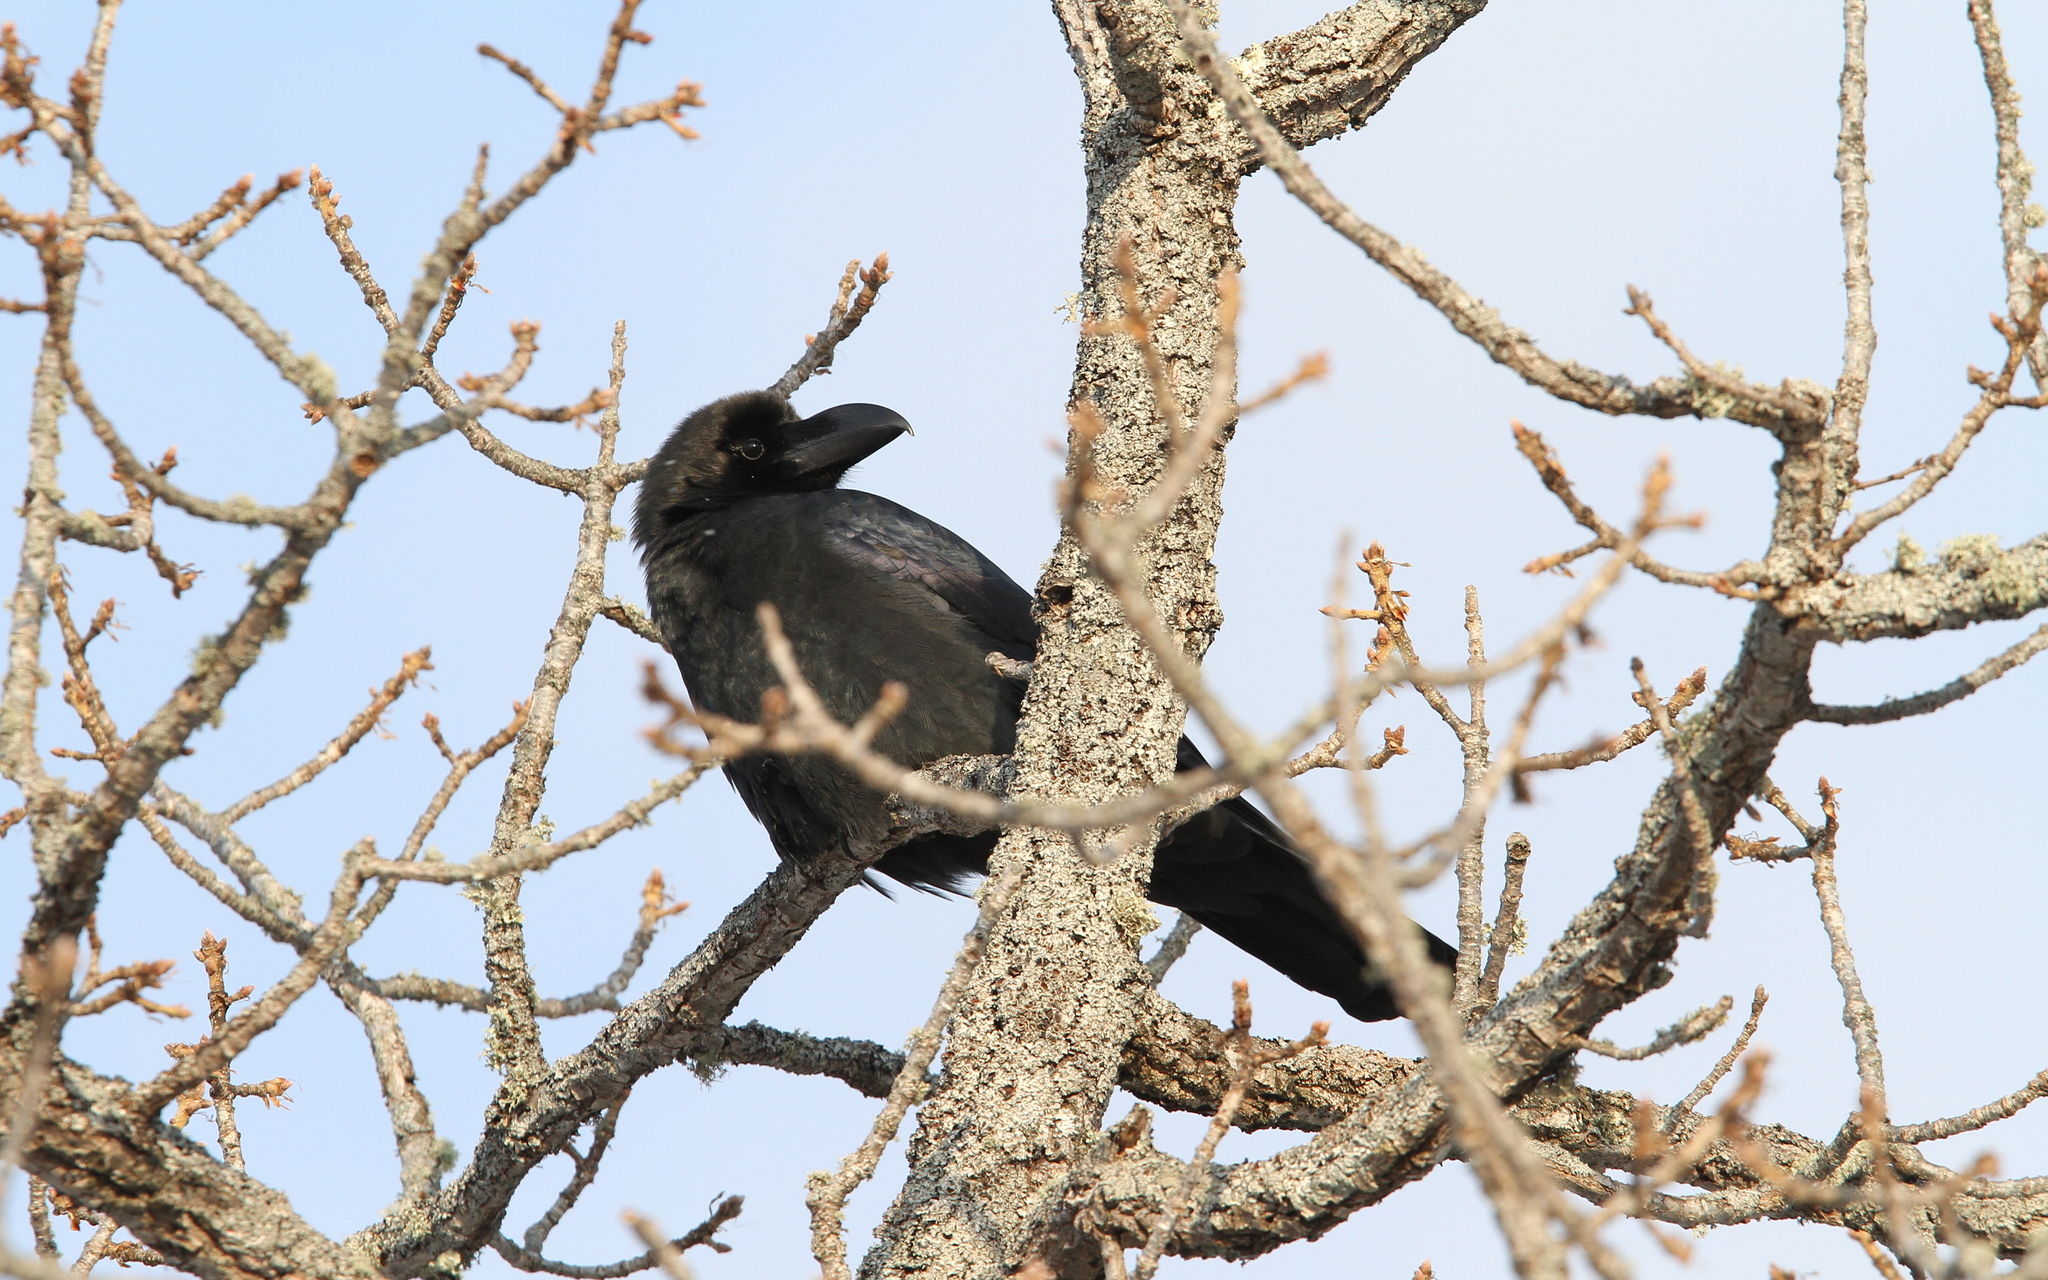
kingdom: Animalia
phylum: Chordata
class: Aves
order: Passeriformes
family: Corvidae
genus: Corvus
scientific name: Corvus macrorhynchos
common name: Large-billed crow
